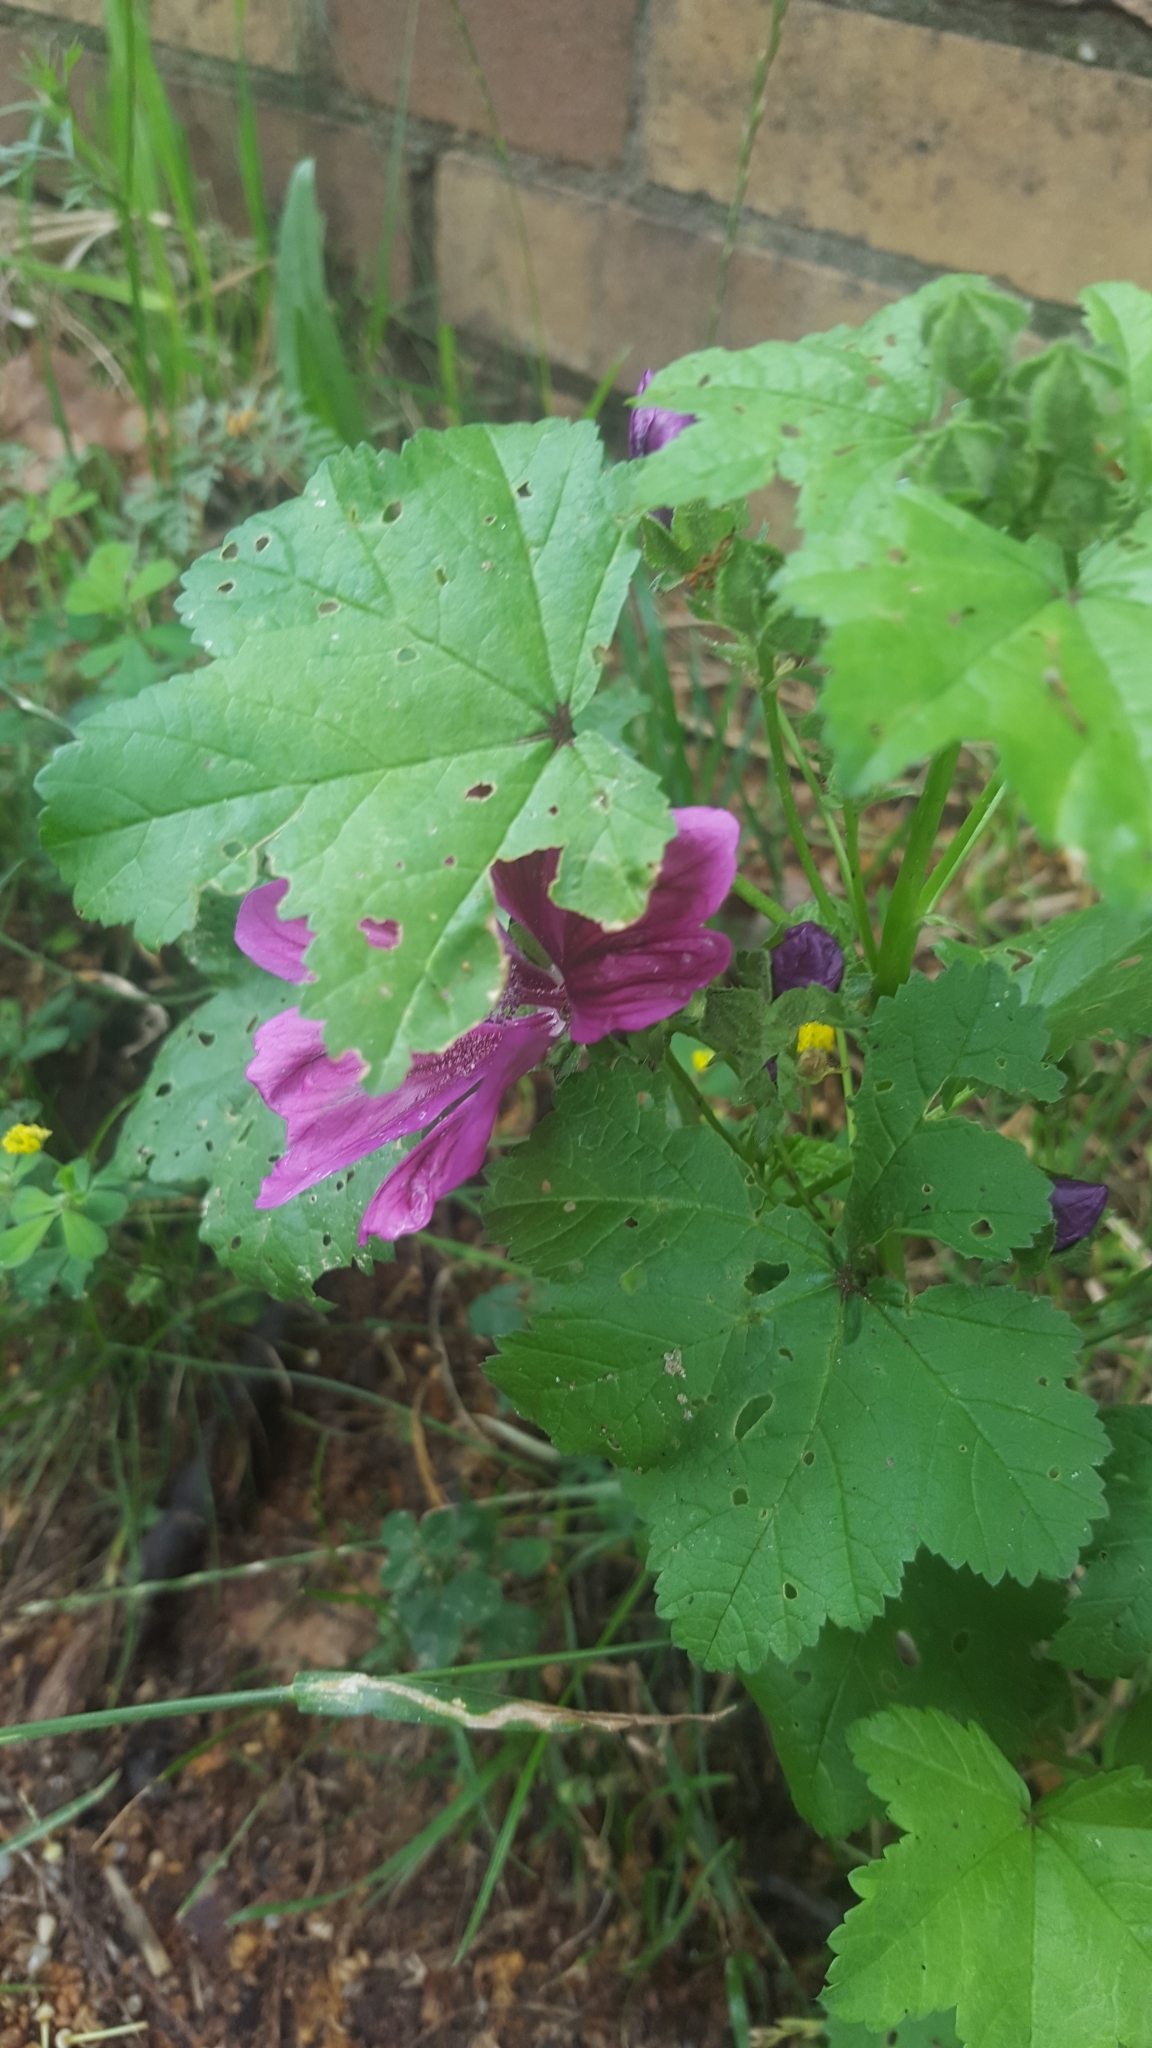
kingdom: Plantae
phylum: Tracheophyta
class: Magnoliopsida
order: Malvales
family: Malvaceae
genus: Malva
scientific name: Malva sylvestris
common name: Common mallow
